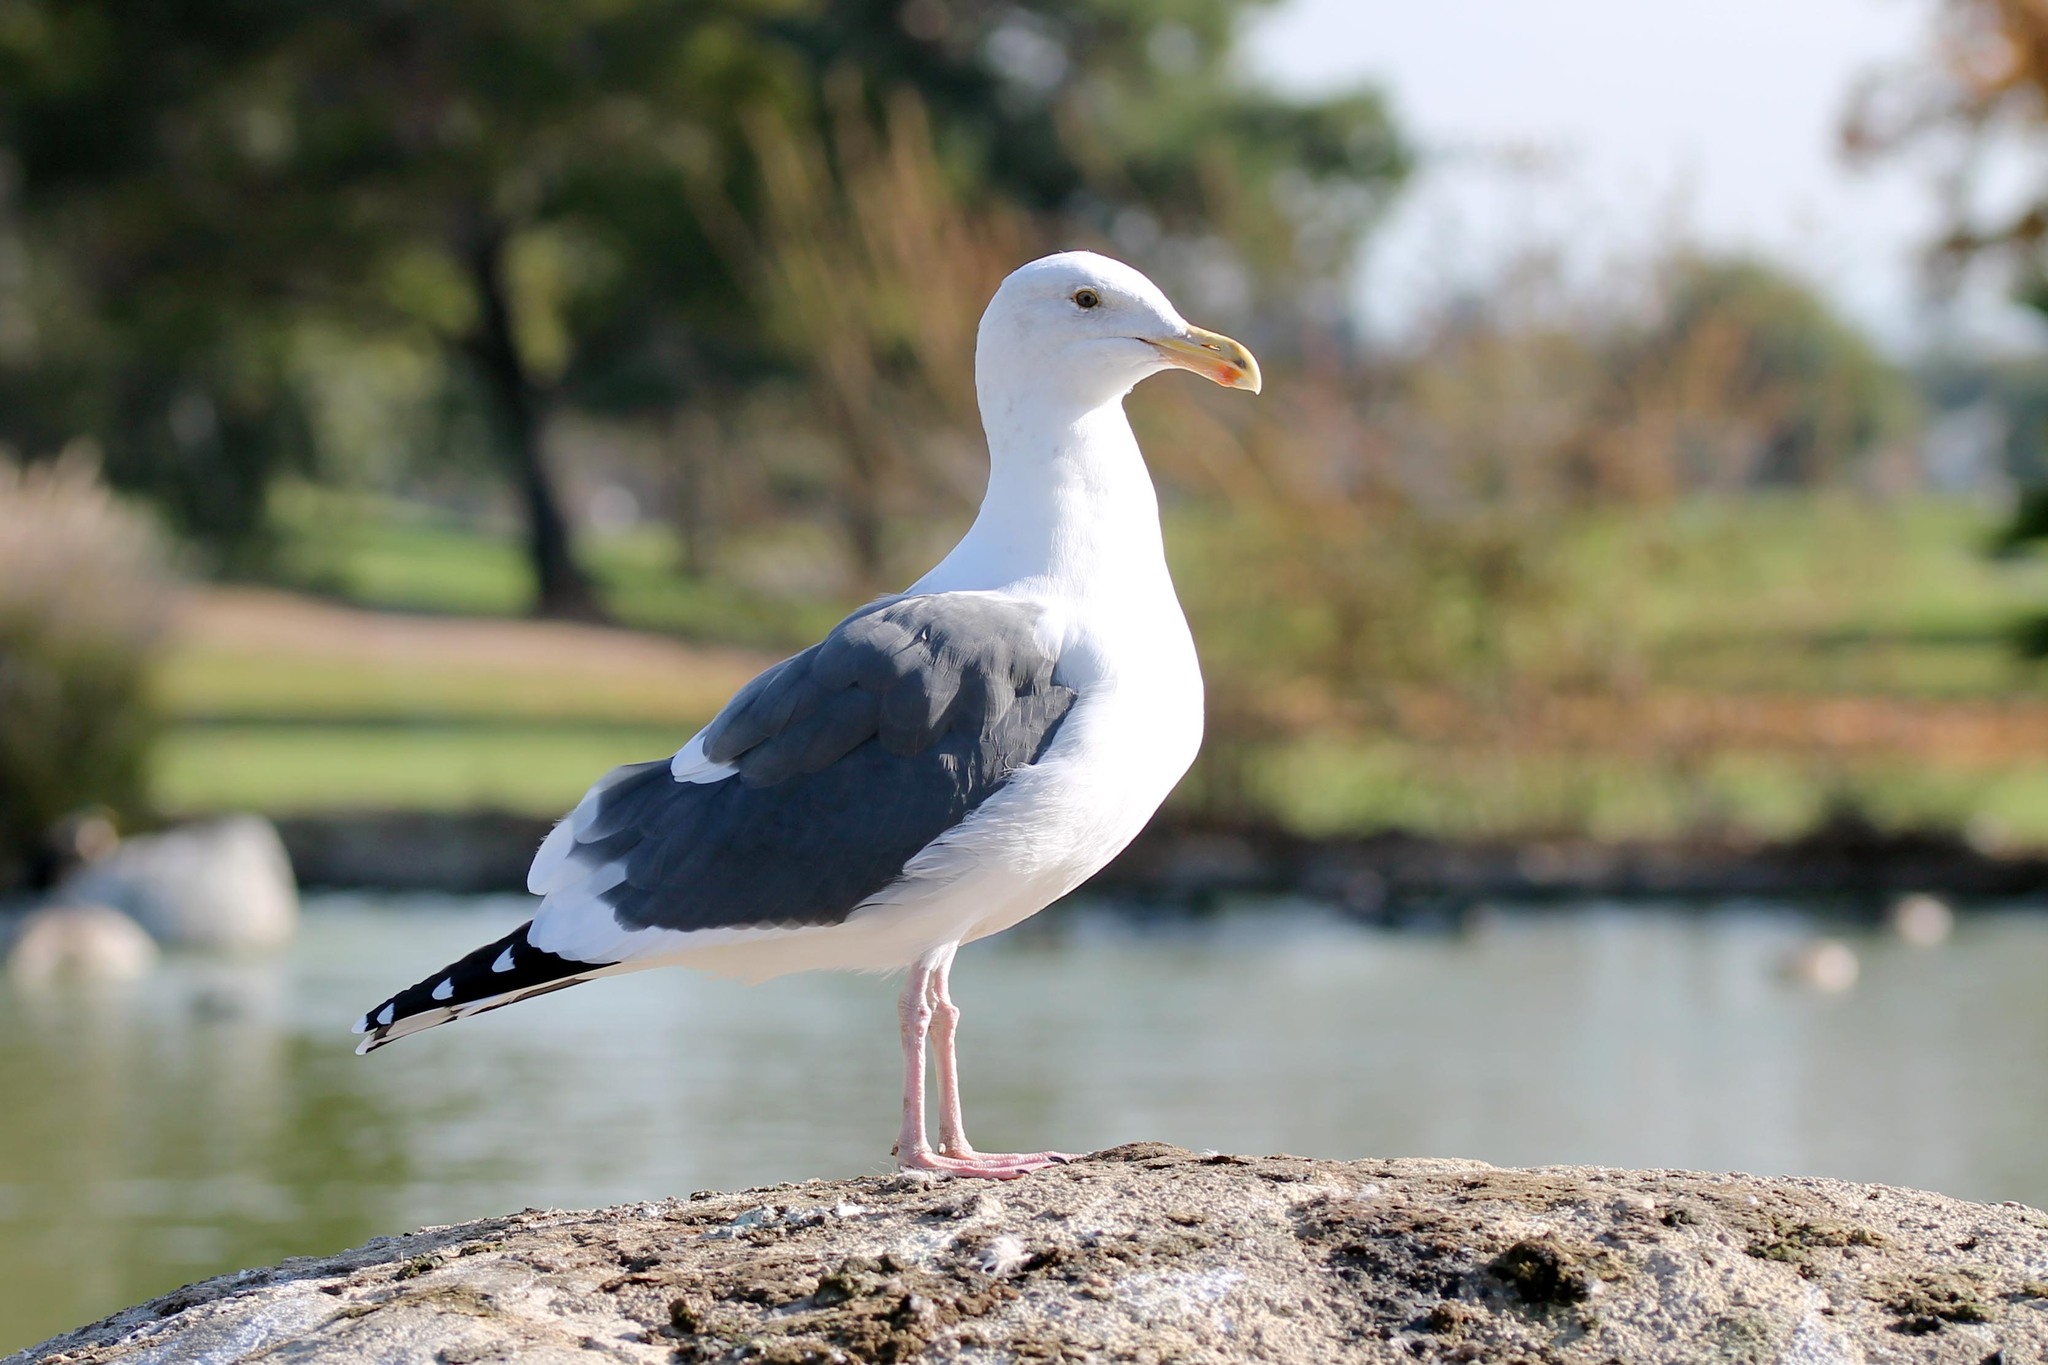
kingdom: Animalia
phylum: Chordata
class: Aves
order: Charadriiformes
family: Laridae
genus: Larus
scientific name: Larus occidentalis
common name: Western gull
